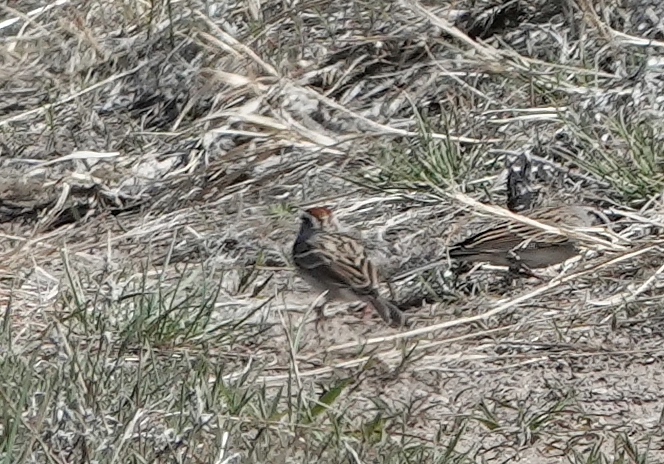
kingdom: Animalia
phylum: Chordata
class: Aves
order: Passeriformes
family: Passerellidae
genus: Spizella
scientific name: Spizella passerina
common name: Chipping sparrow
